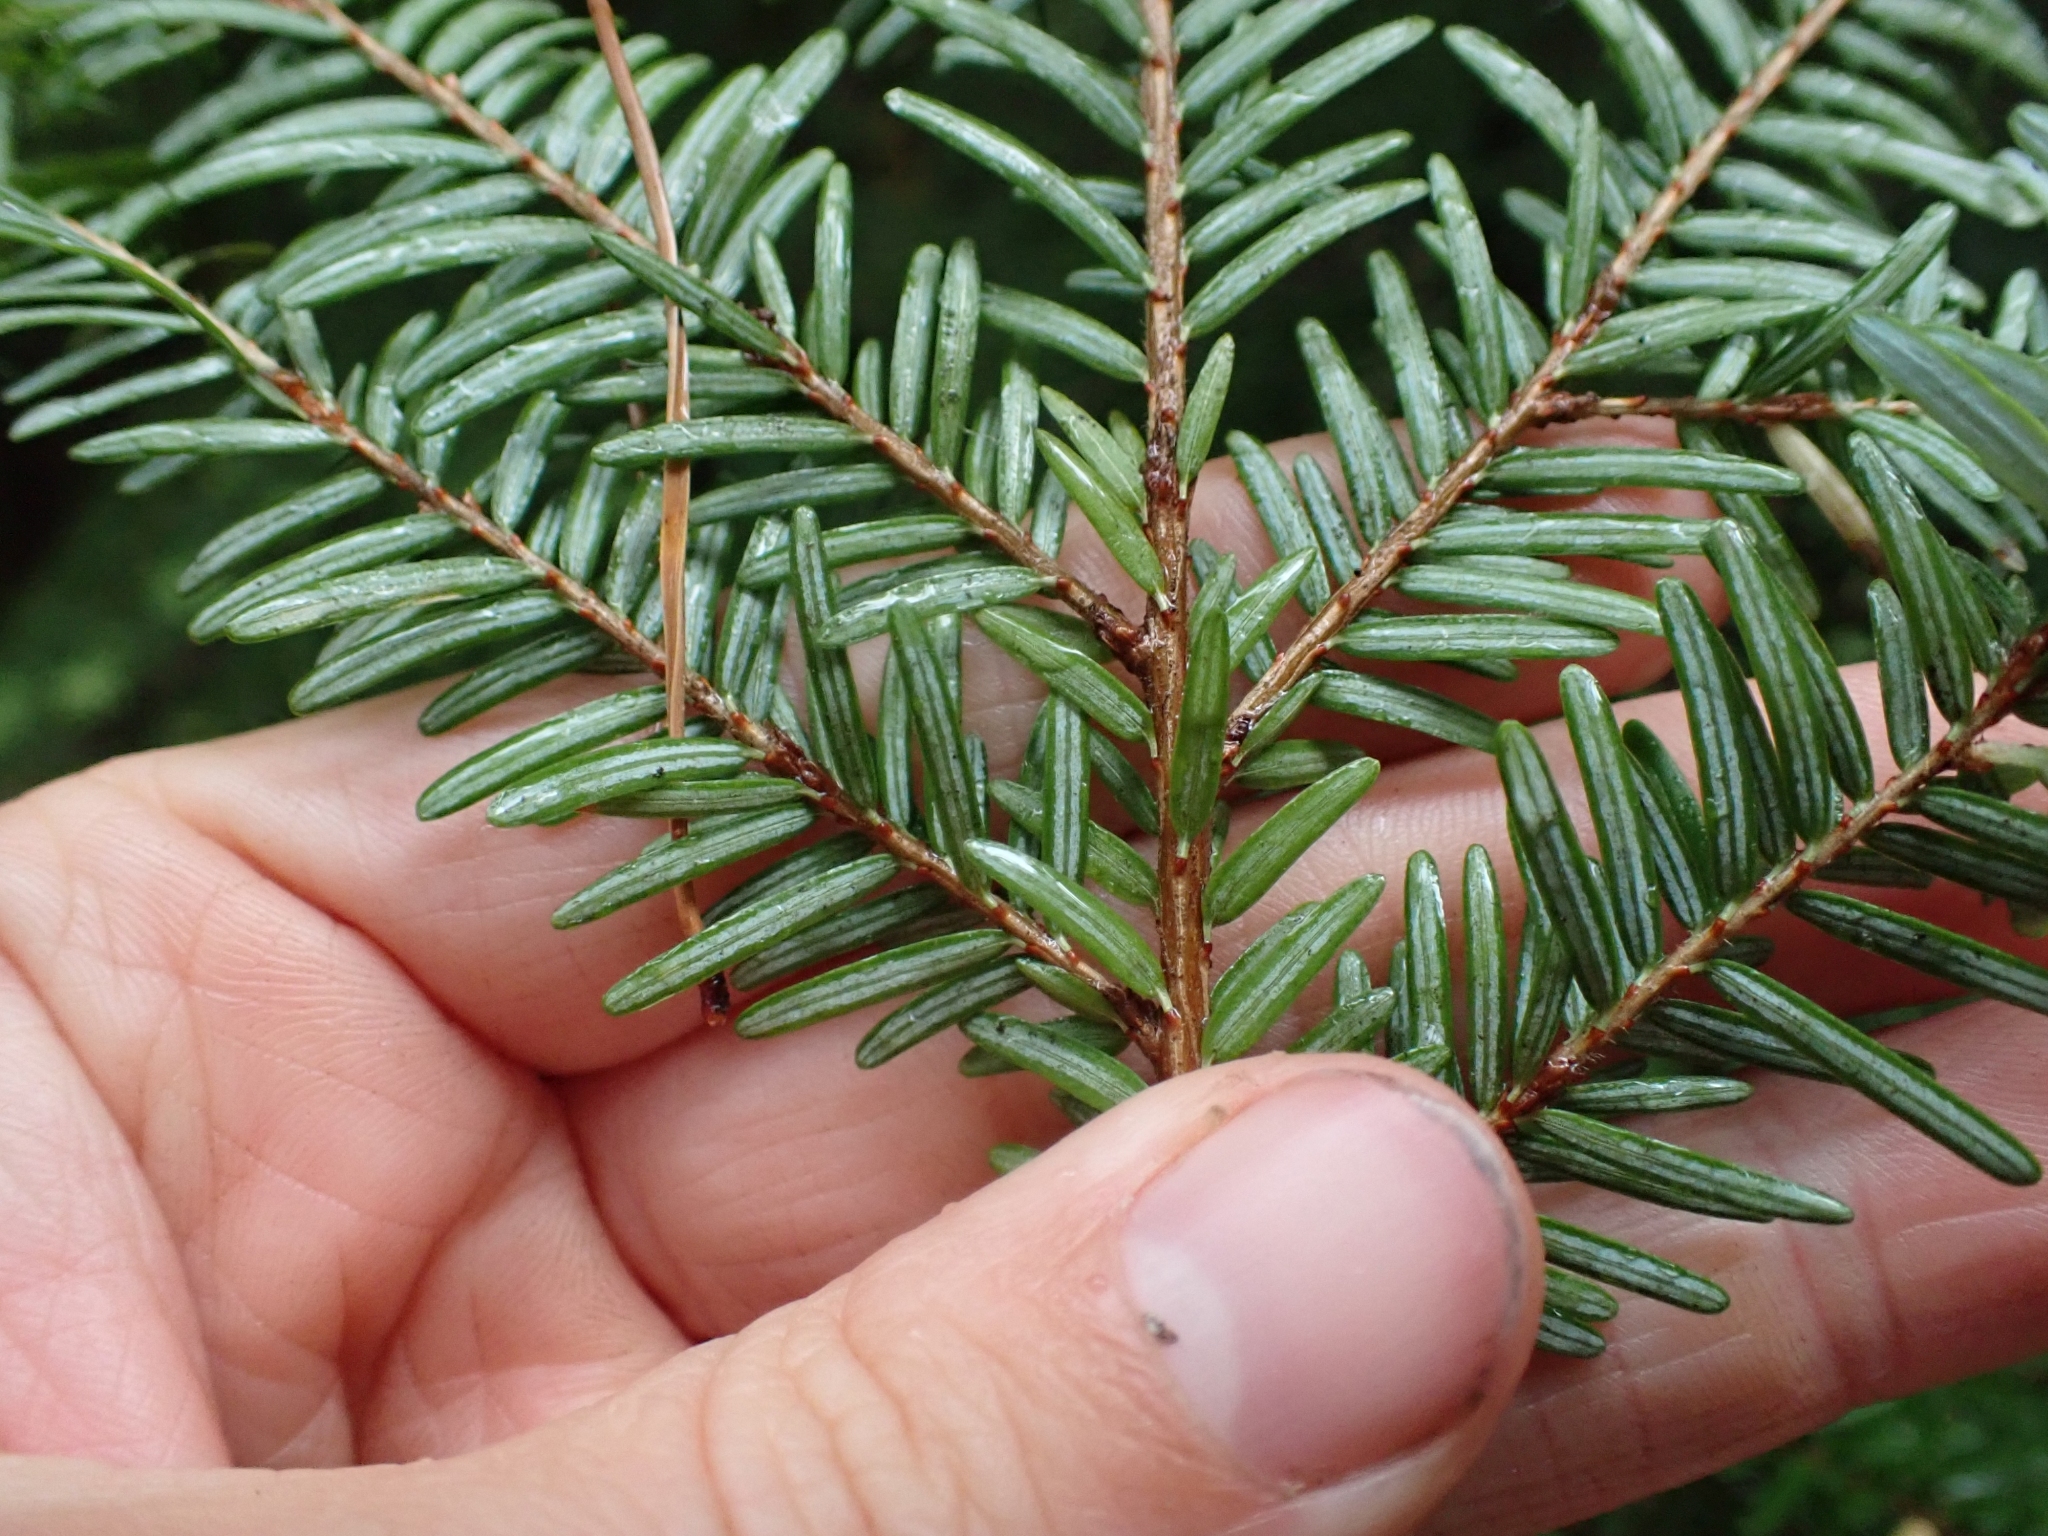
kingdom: Plantae
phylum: Tracheophyta
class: Pinopsida
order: Pinales
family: Pinaceae
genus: Tsuga
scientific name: Tsuga heterophylla
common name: Western hemlock
